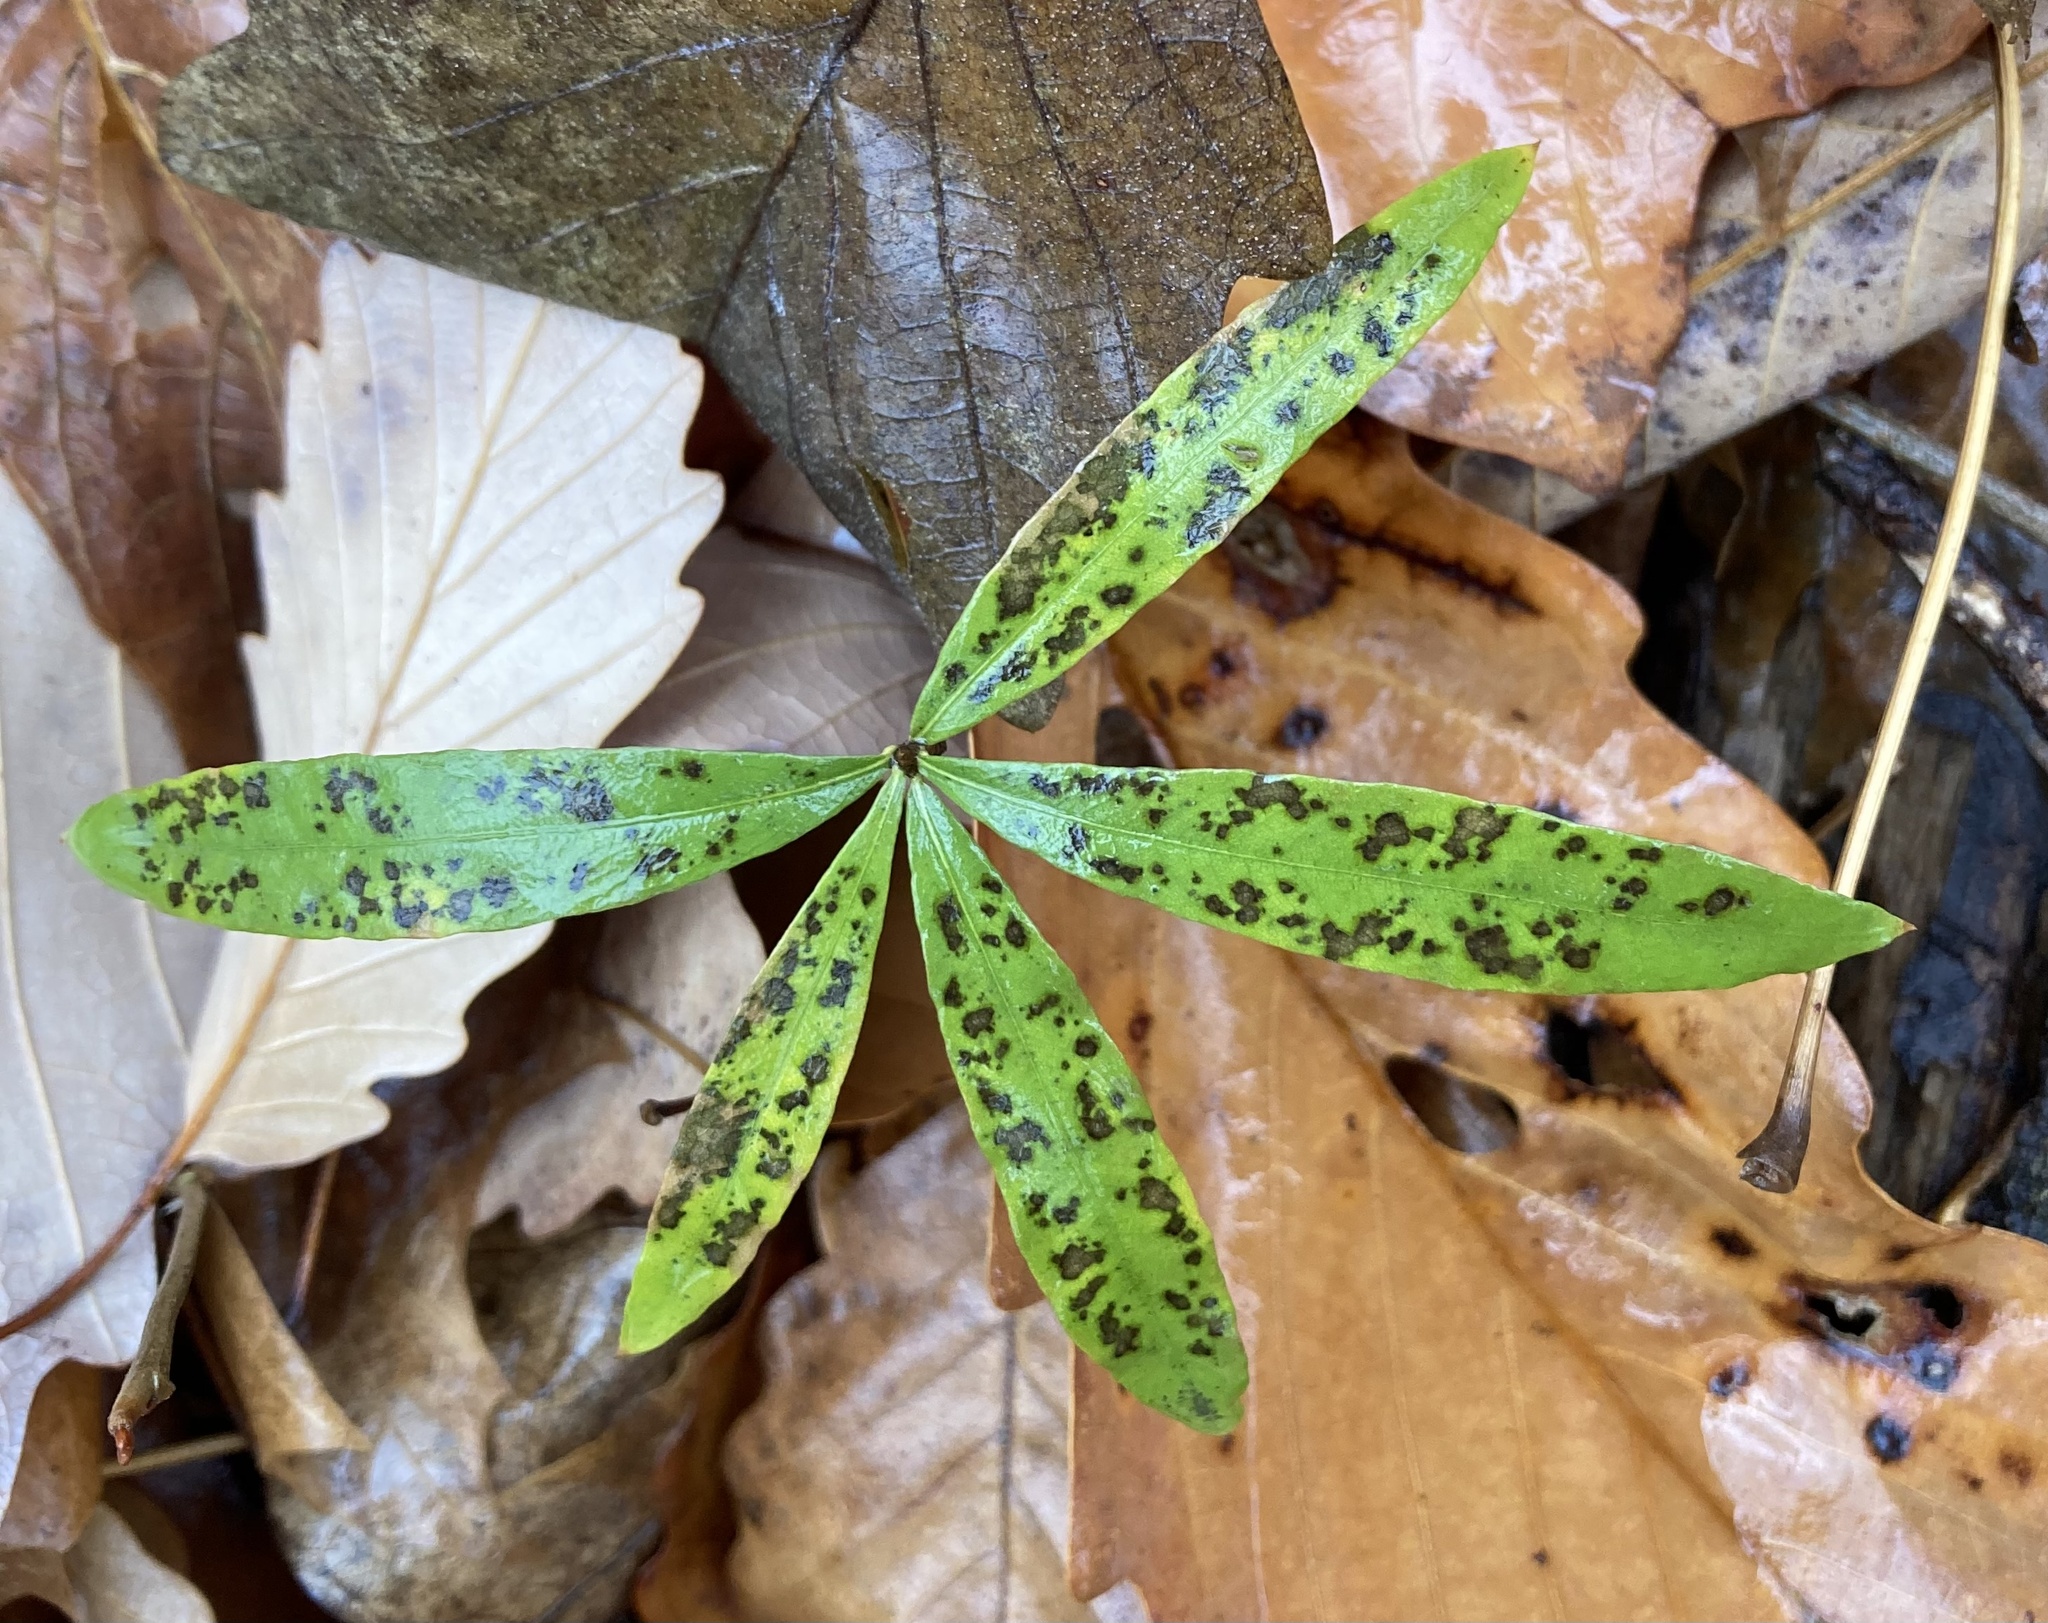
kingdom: Plantae
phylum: Tracheophyta
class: Magnoliopsida
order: Fagales
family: Fagaceae
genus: Quercus
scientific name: Quercus phellos
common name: Willow oak
